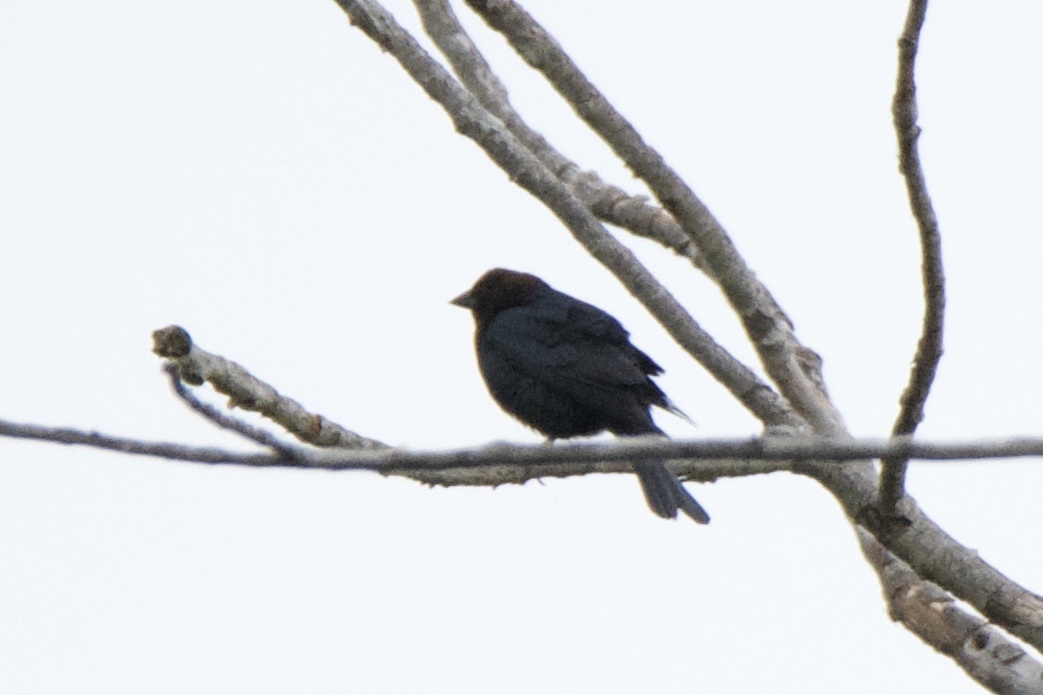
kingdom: Animalia
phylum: Chordata
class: Aves
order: Passeriformes
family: Icteridae
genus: Molothrus
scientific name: Molothrus ater
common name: Brown-headed cowbird
